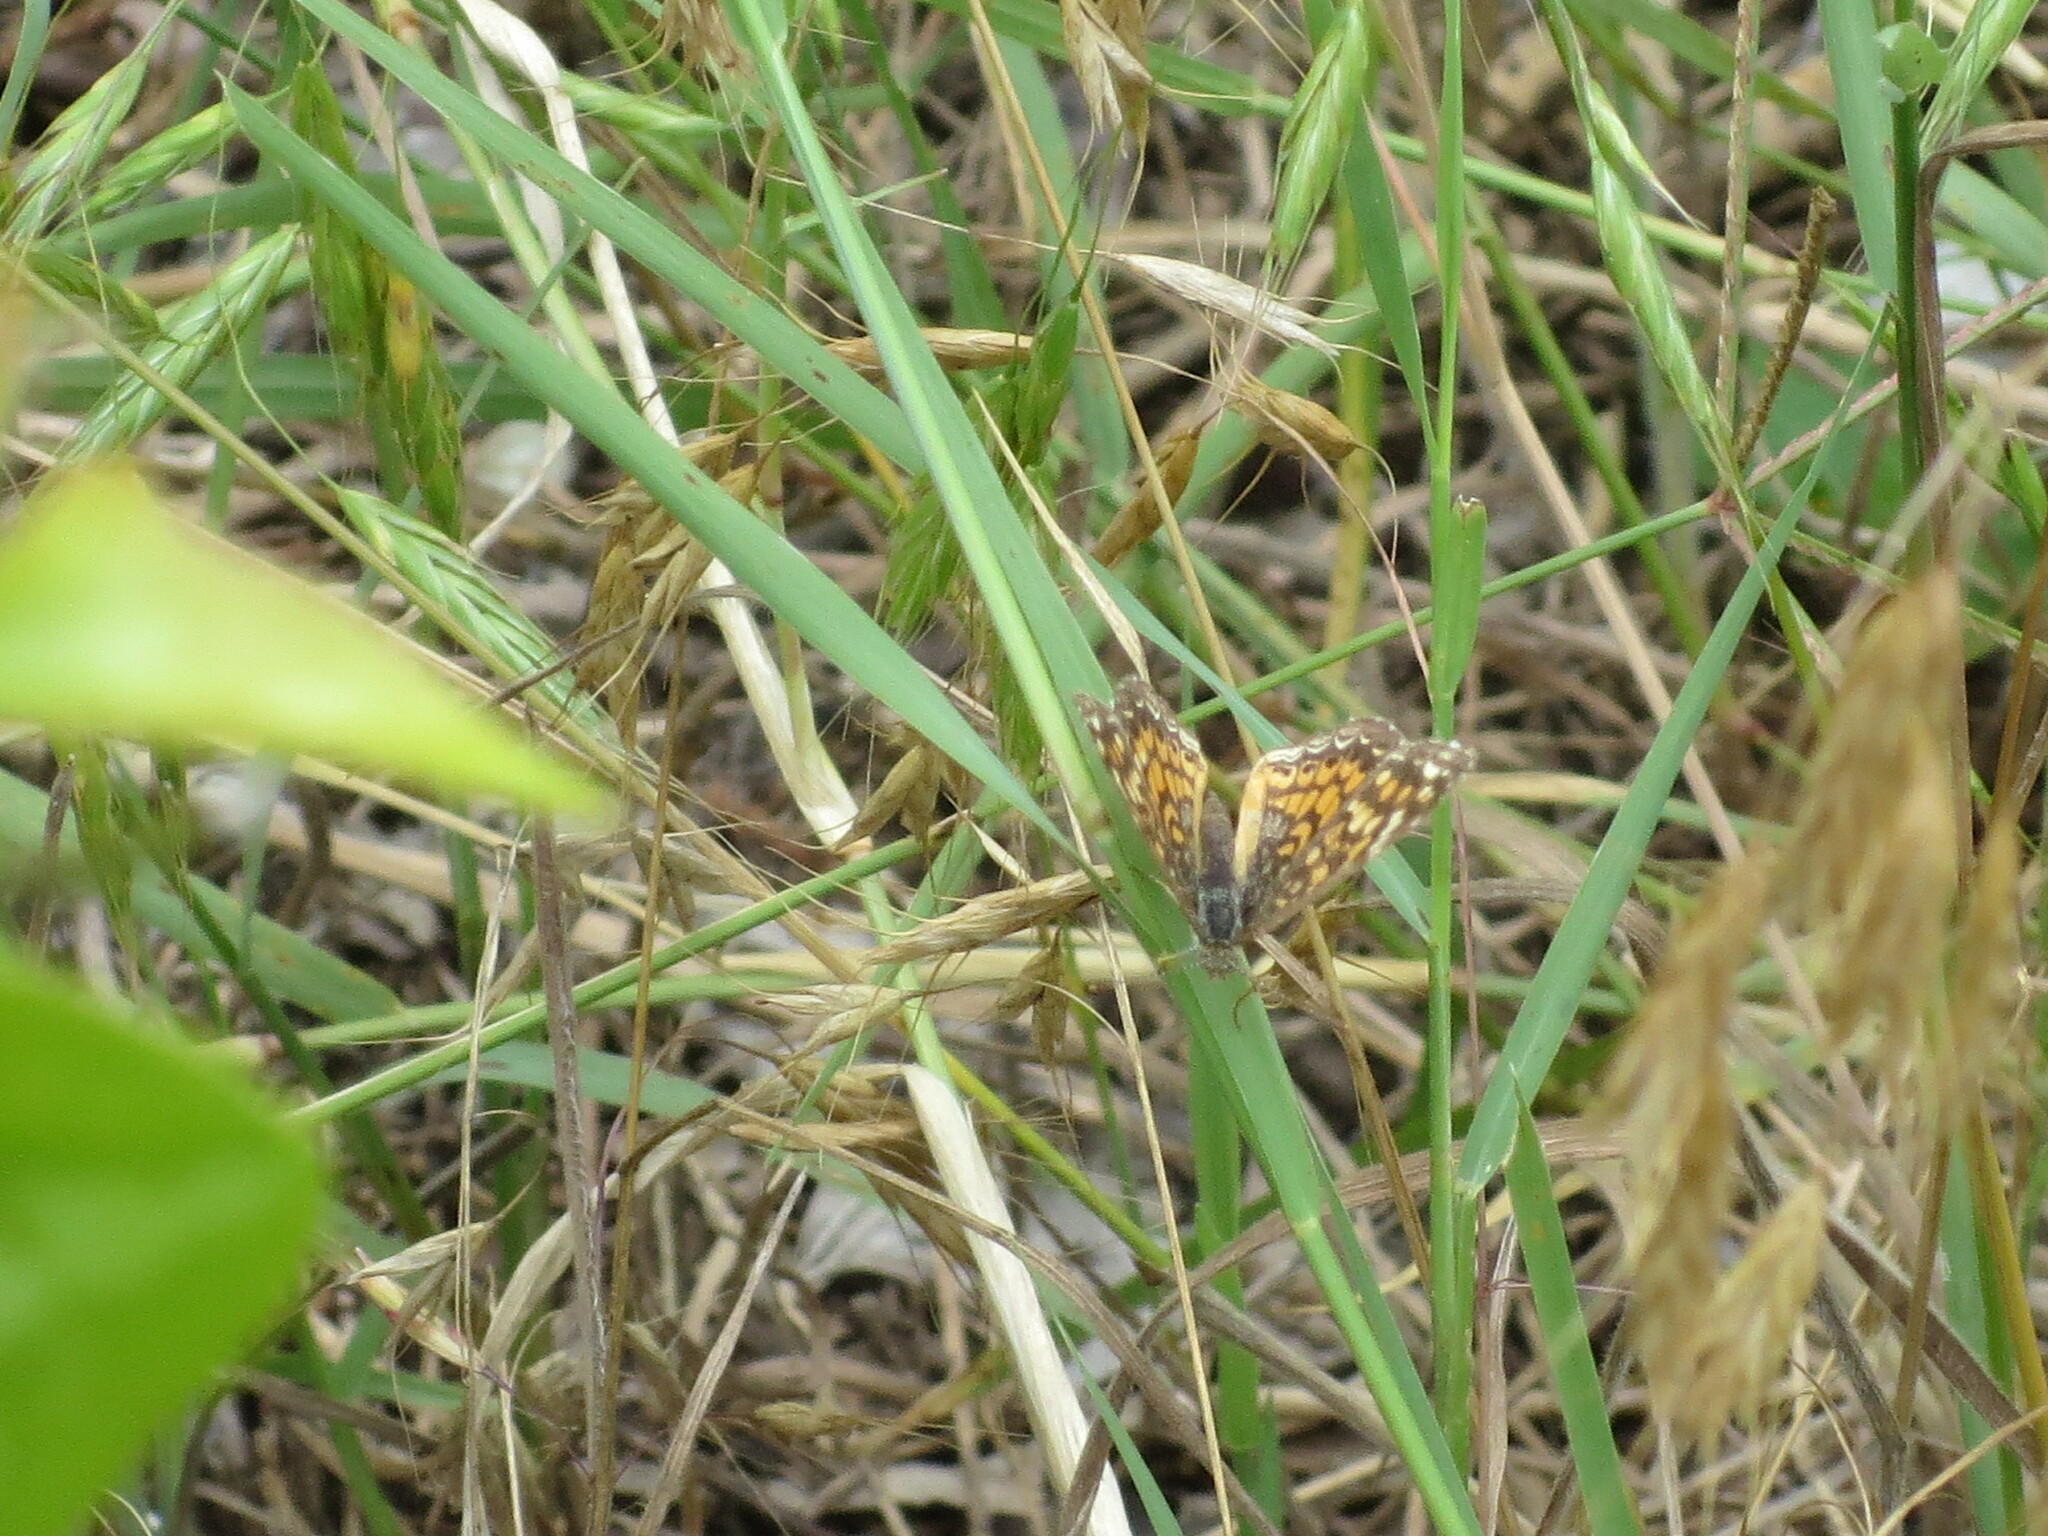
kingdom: Animalia
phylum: Arthropoda
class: Insecta
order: Lepidoptera
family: Nymphalidae
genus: Phyciodes
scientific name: Phyciodes vesta
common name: Vesta crescent
